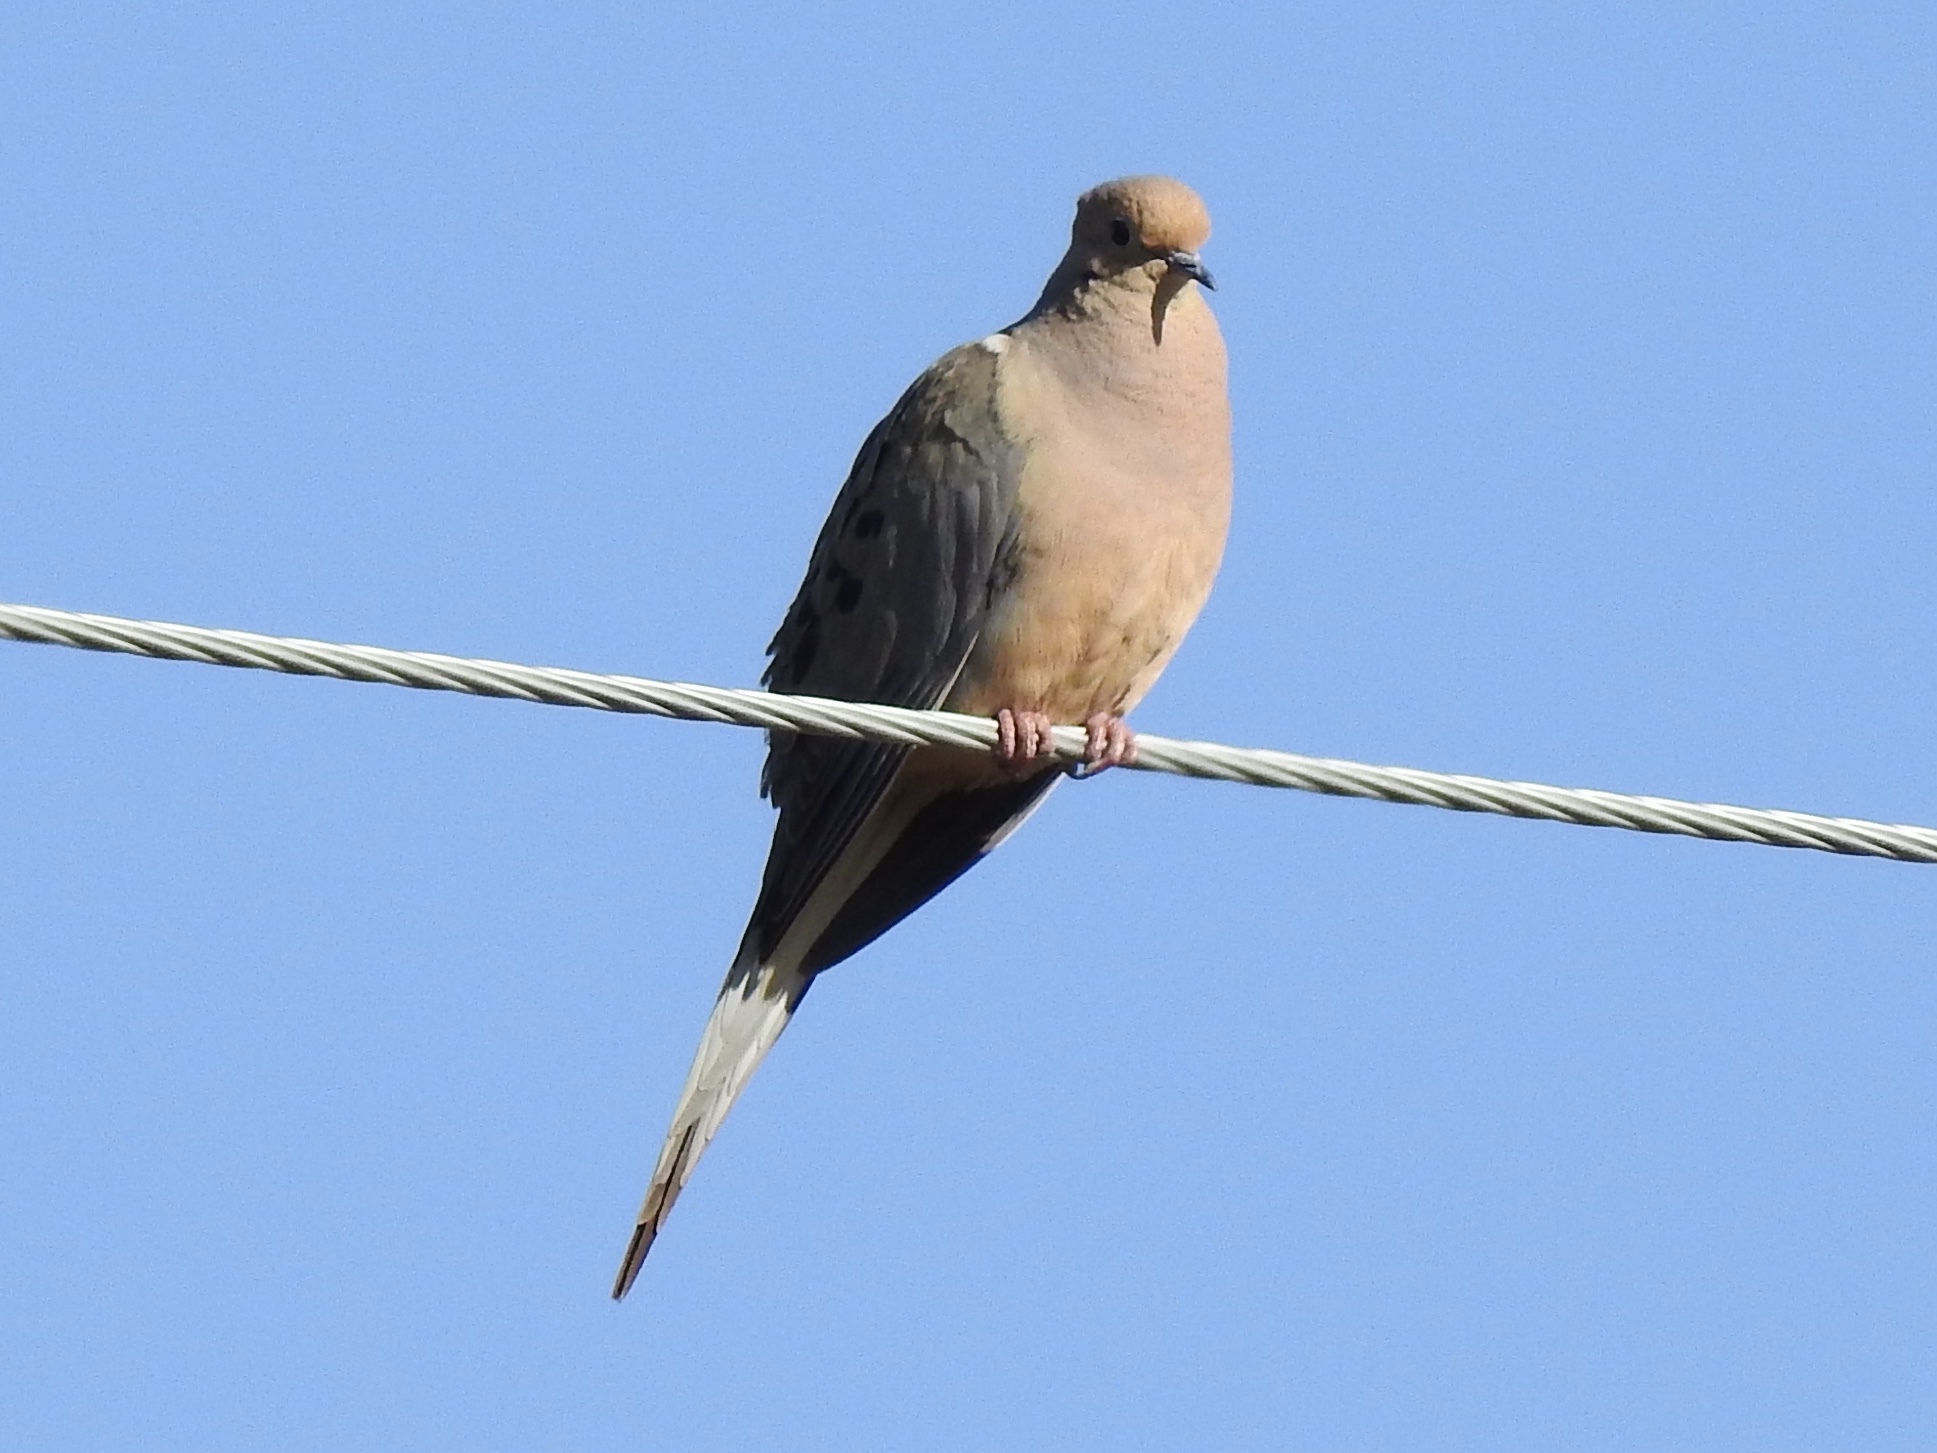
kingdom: Animalia
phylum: Chordata
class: Aves
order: Columbiformes
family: Columbidae
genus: Zenaida
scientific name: Zenaida macroura
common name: Mourning dove
